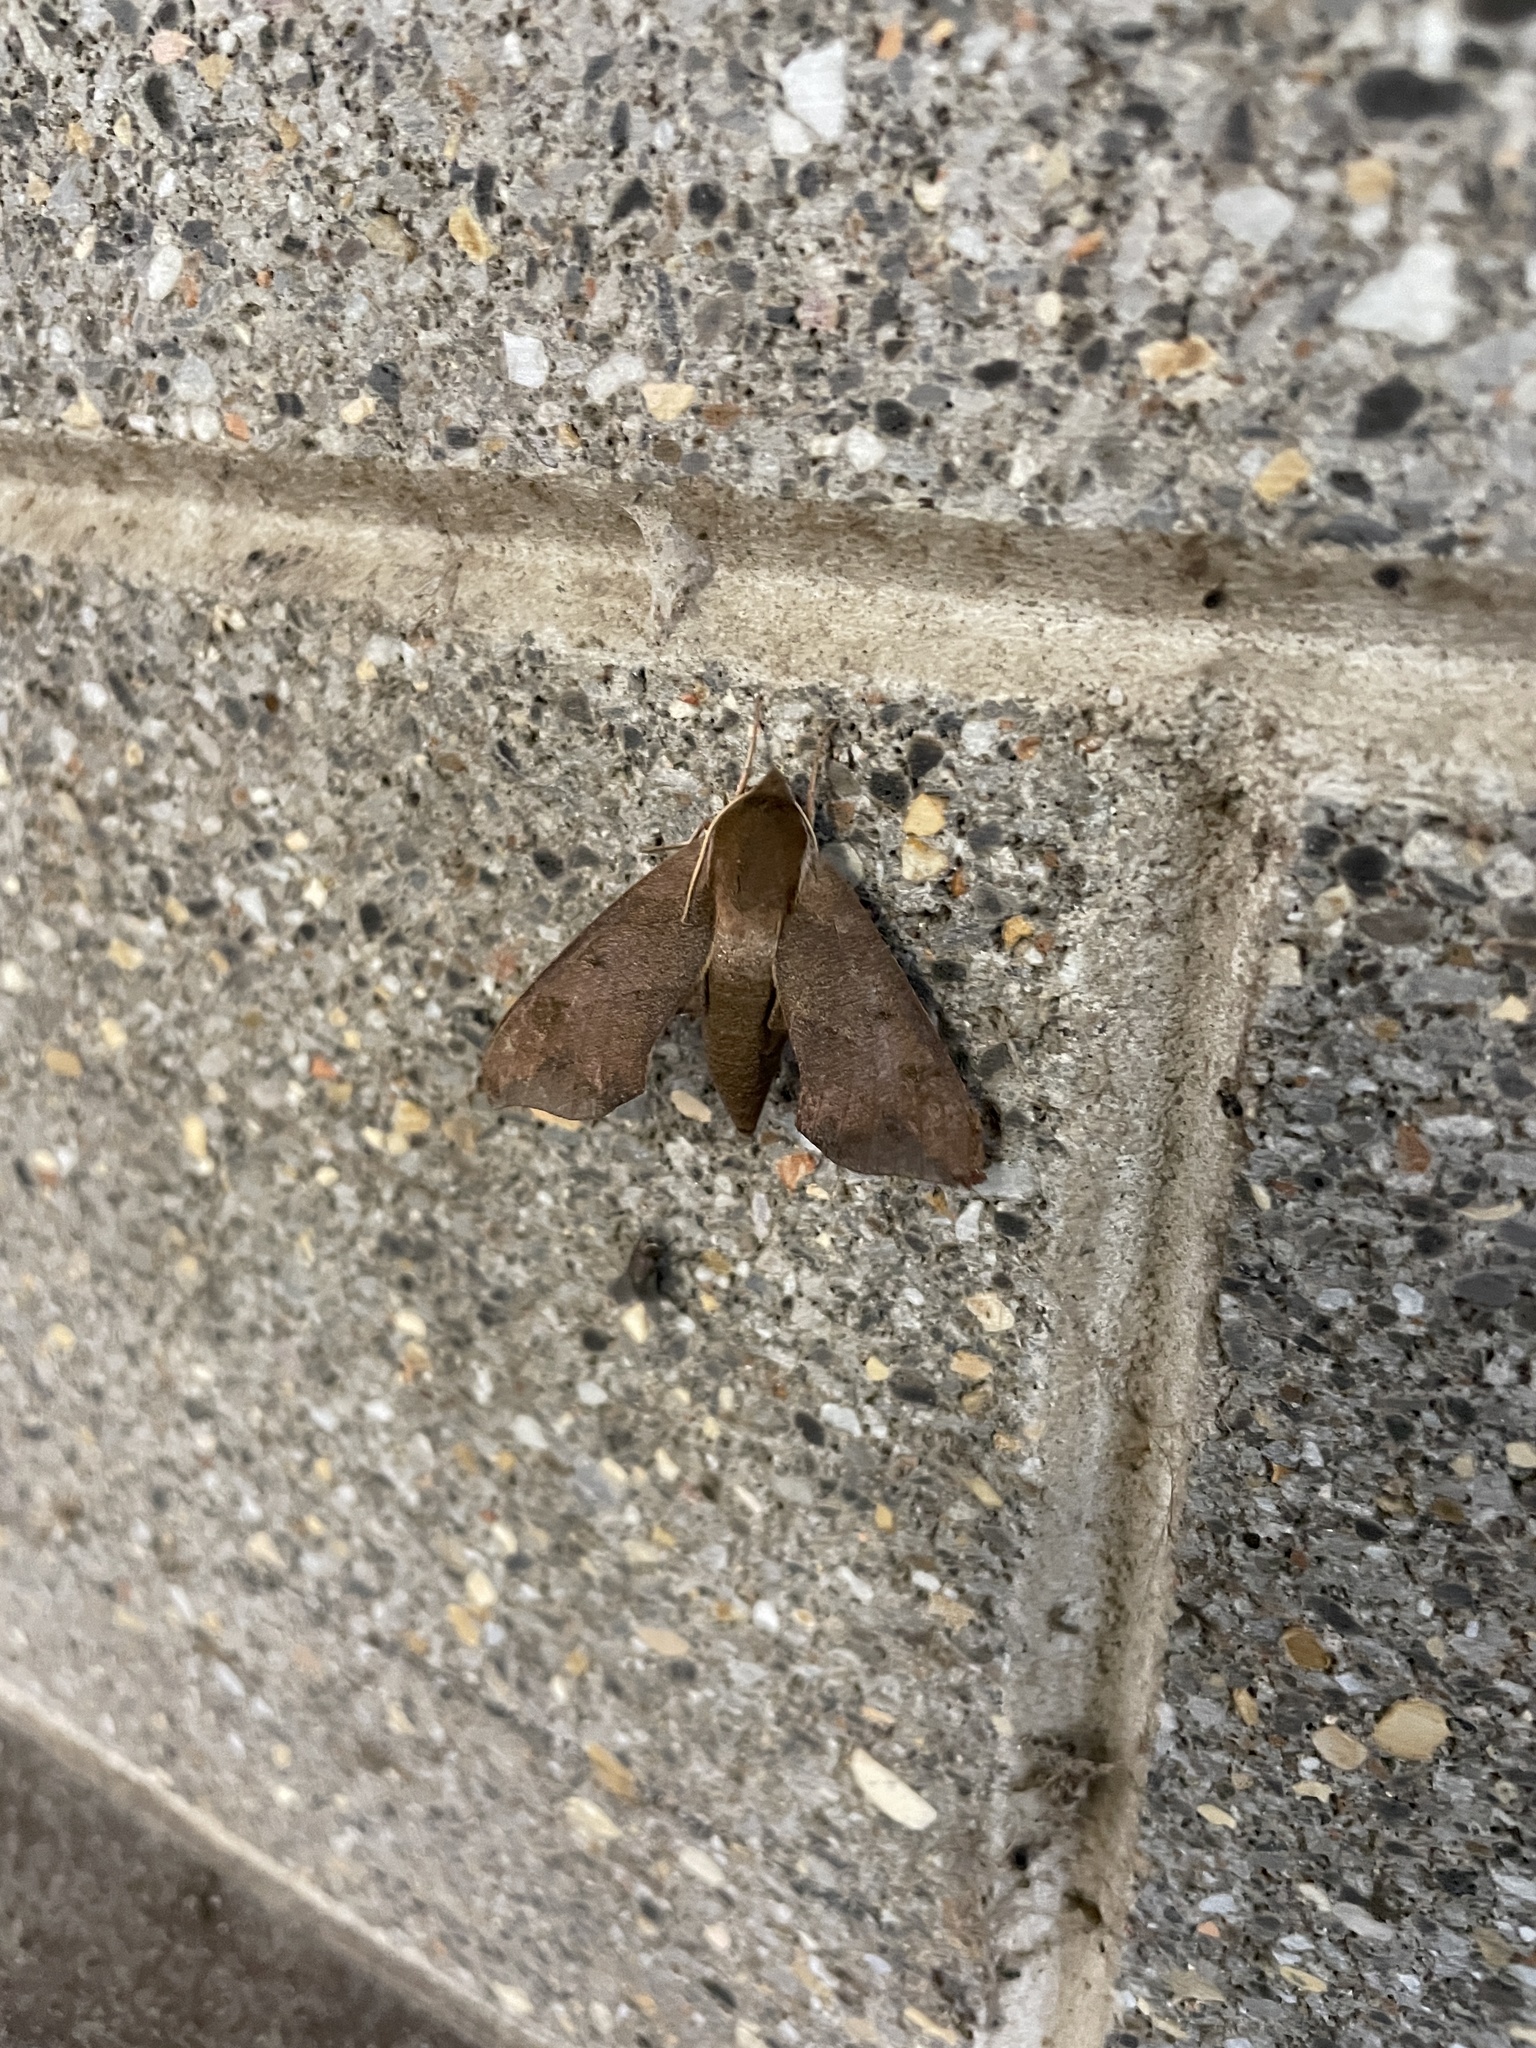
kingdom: Animalia
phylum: Arthropoda
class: Insecta
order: Lepidoptera
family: Sphingidae
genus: Darapsa
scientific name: Darapsa myron
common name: Hog sphinx
